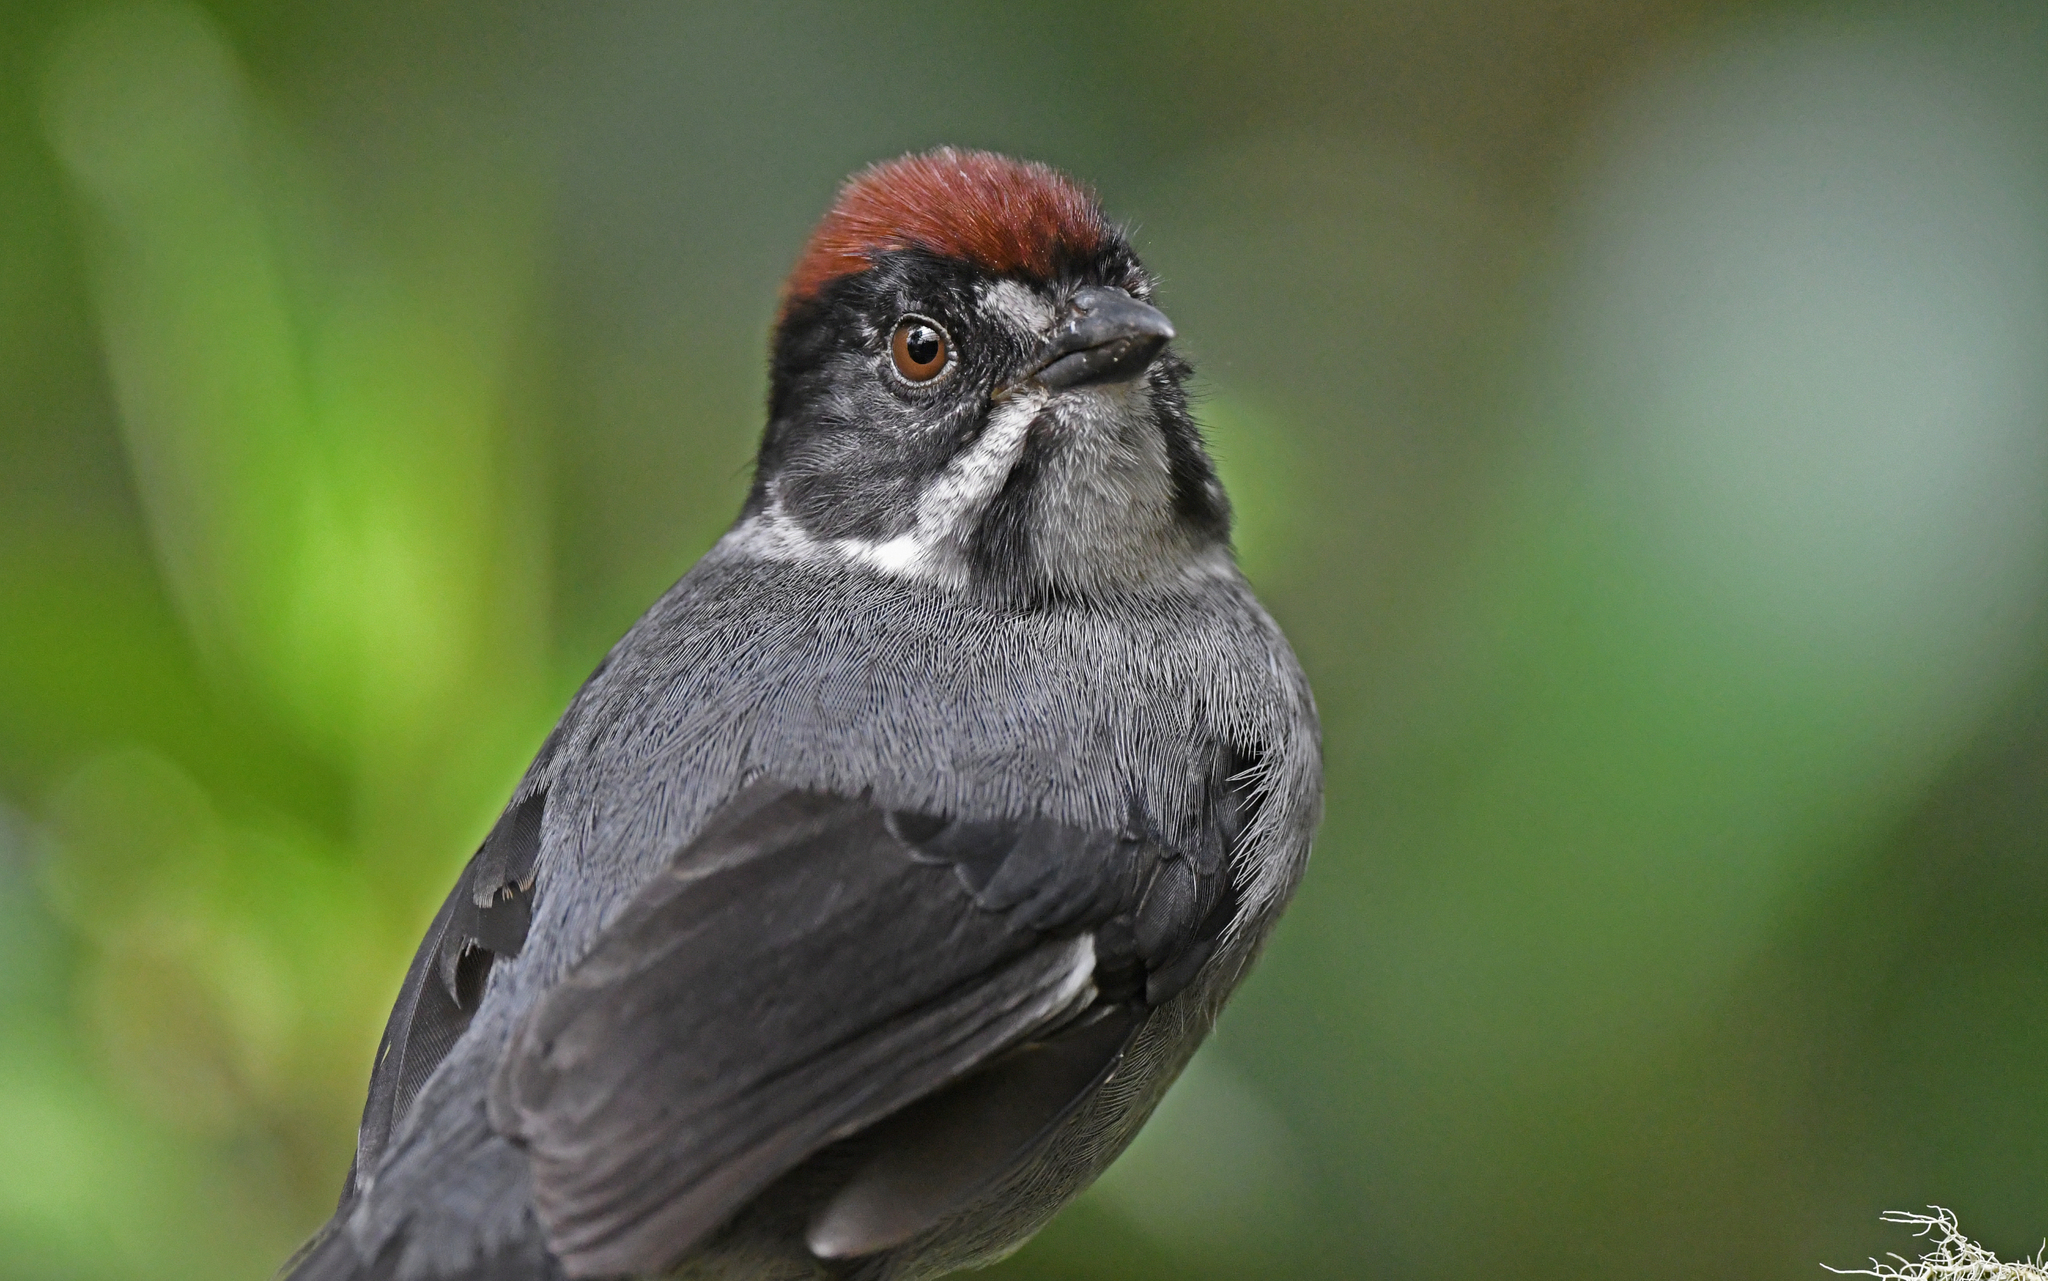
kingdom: Animalia
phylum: Chordata
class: Aves
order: Passeriformes
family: Passerellidae
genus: Atlapetes
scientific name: Atlapetes schistaceus
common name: Slaty brushfinch
